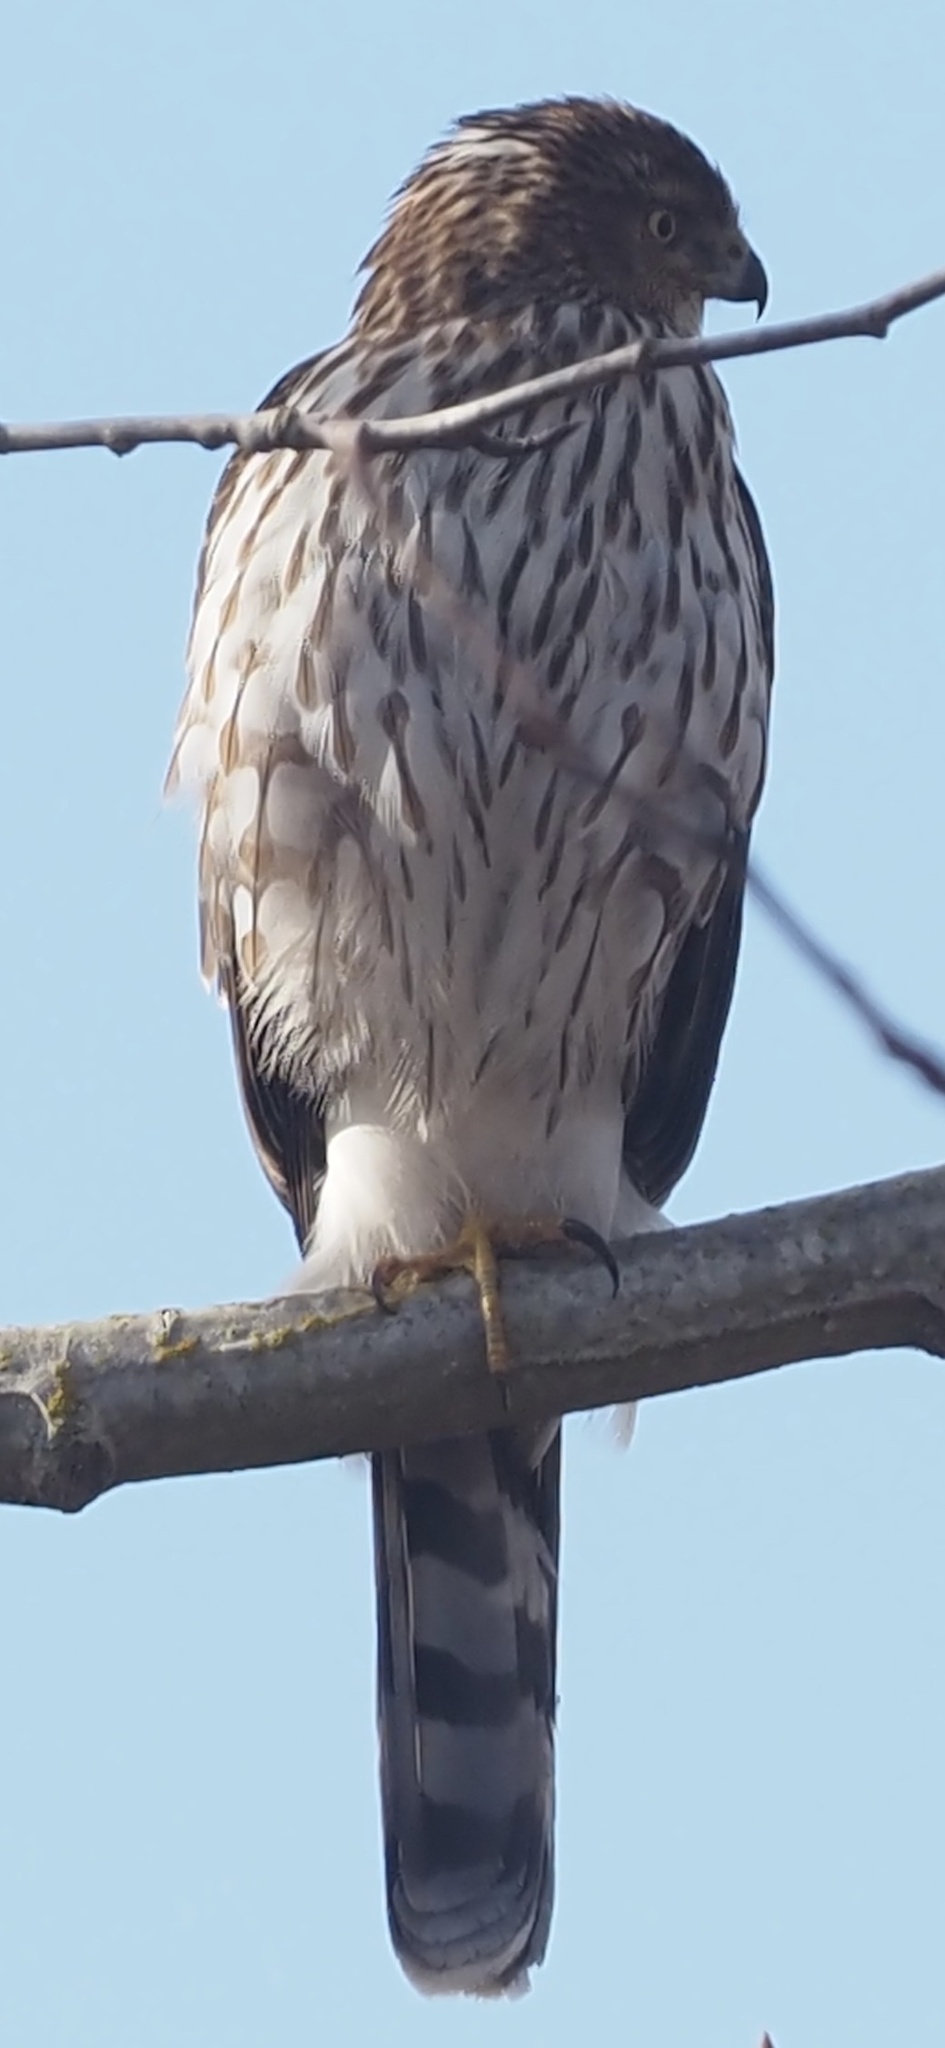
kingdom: Animalia
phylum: Chordata
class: Aves
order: Accipitriformes
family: Accipitridae
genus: Accipiter
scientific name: Accipiter cooperii
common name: Cooper's hawk
